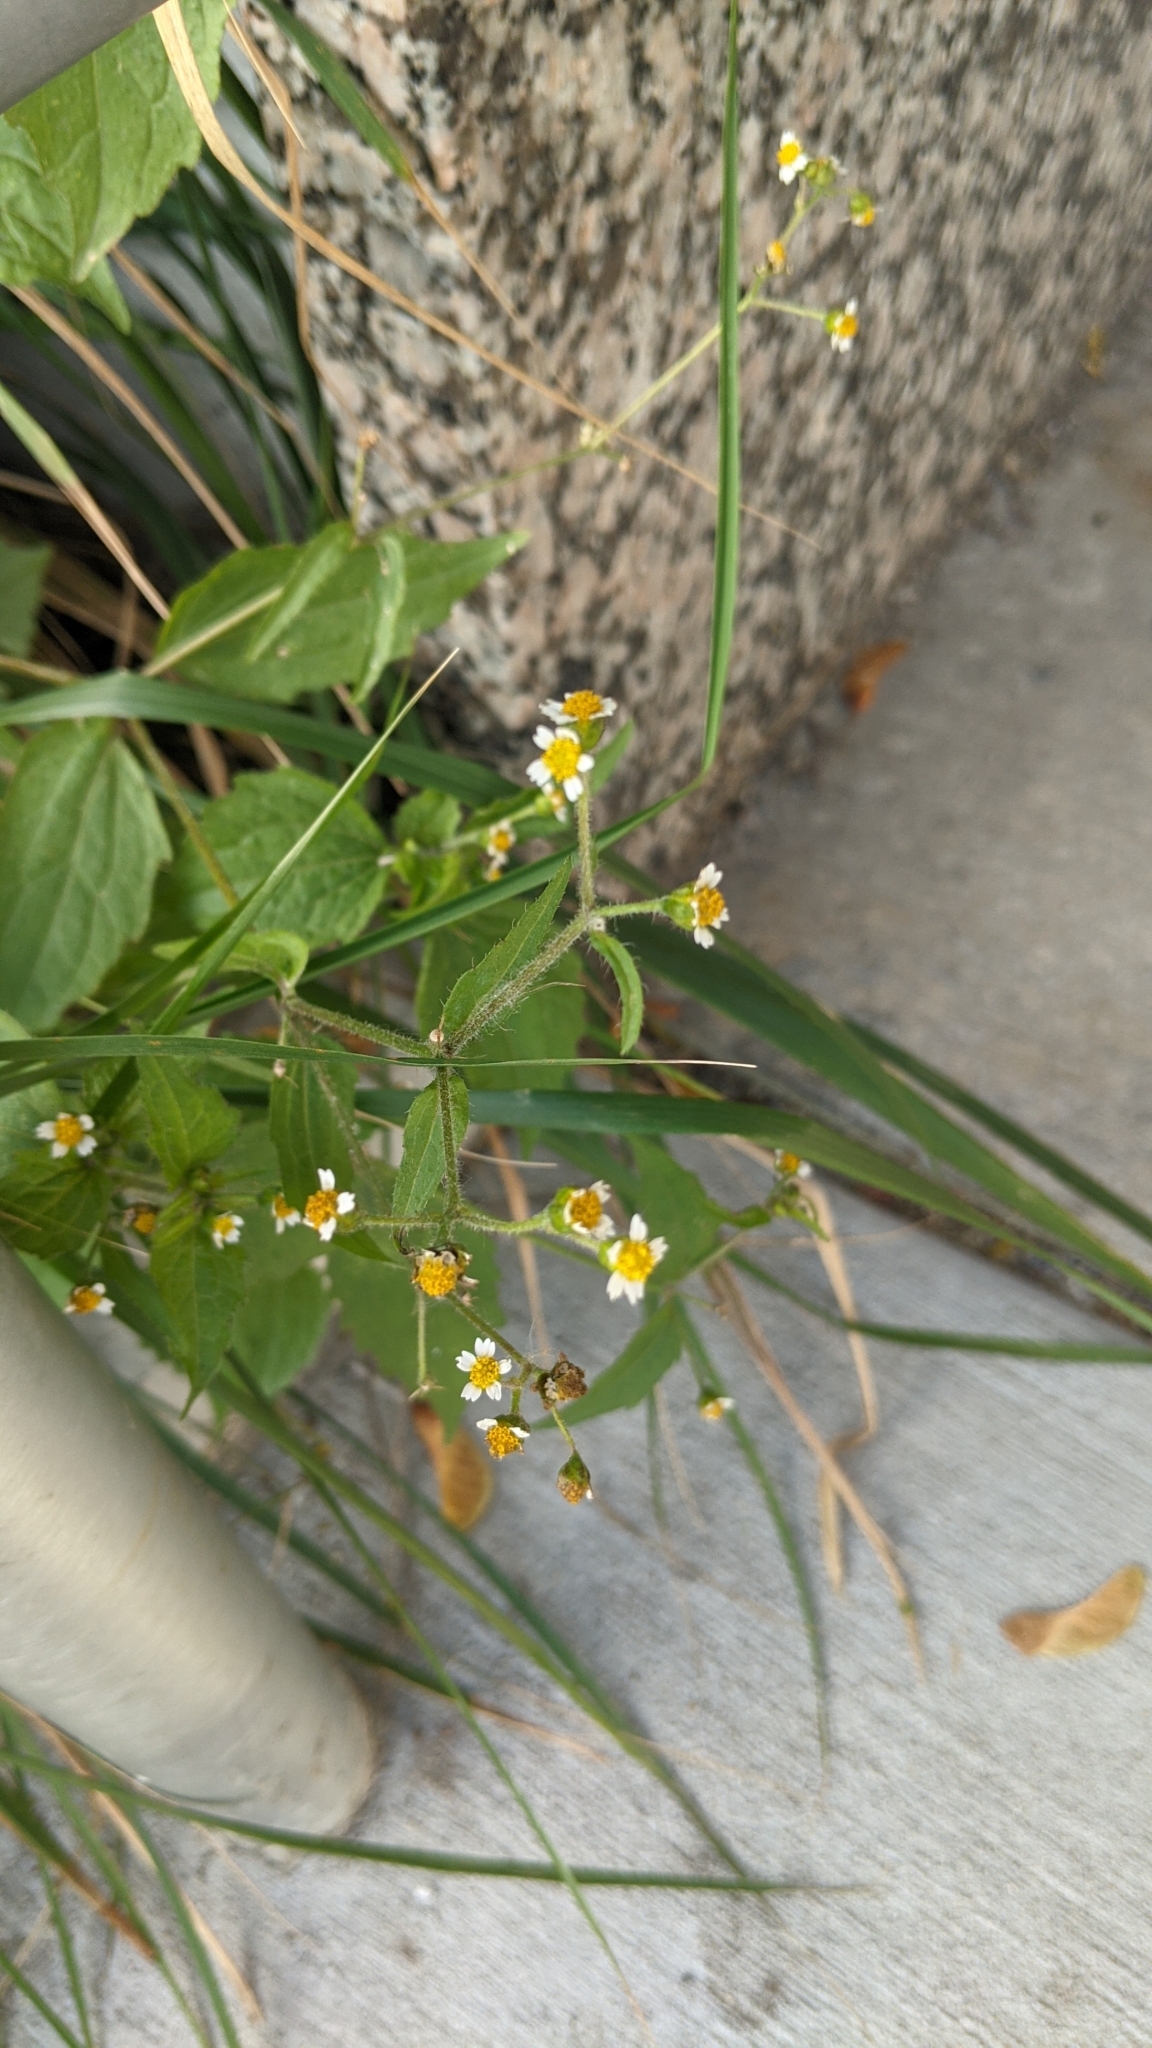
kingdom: Plantae
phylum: Tracheophyta
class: Magnoliopsida
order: Asterales
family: Asteraceae
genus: Galinsoga
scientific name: Galinsoga quadriradiata
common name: Shaggy soldier
